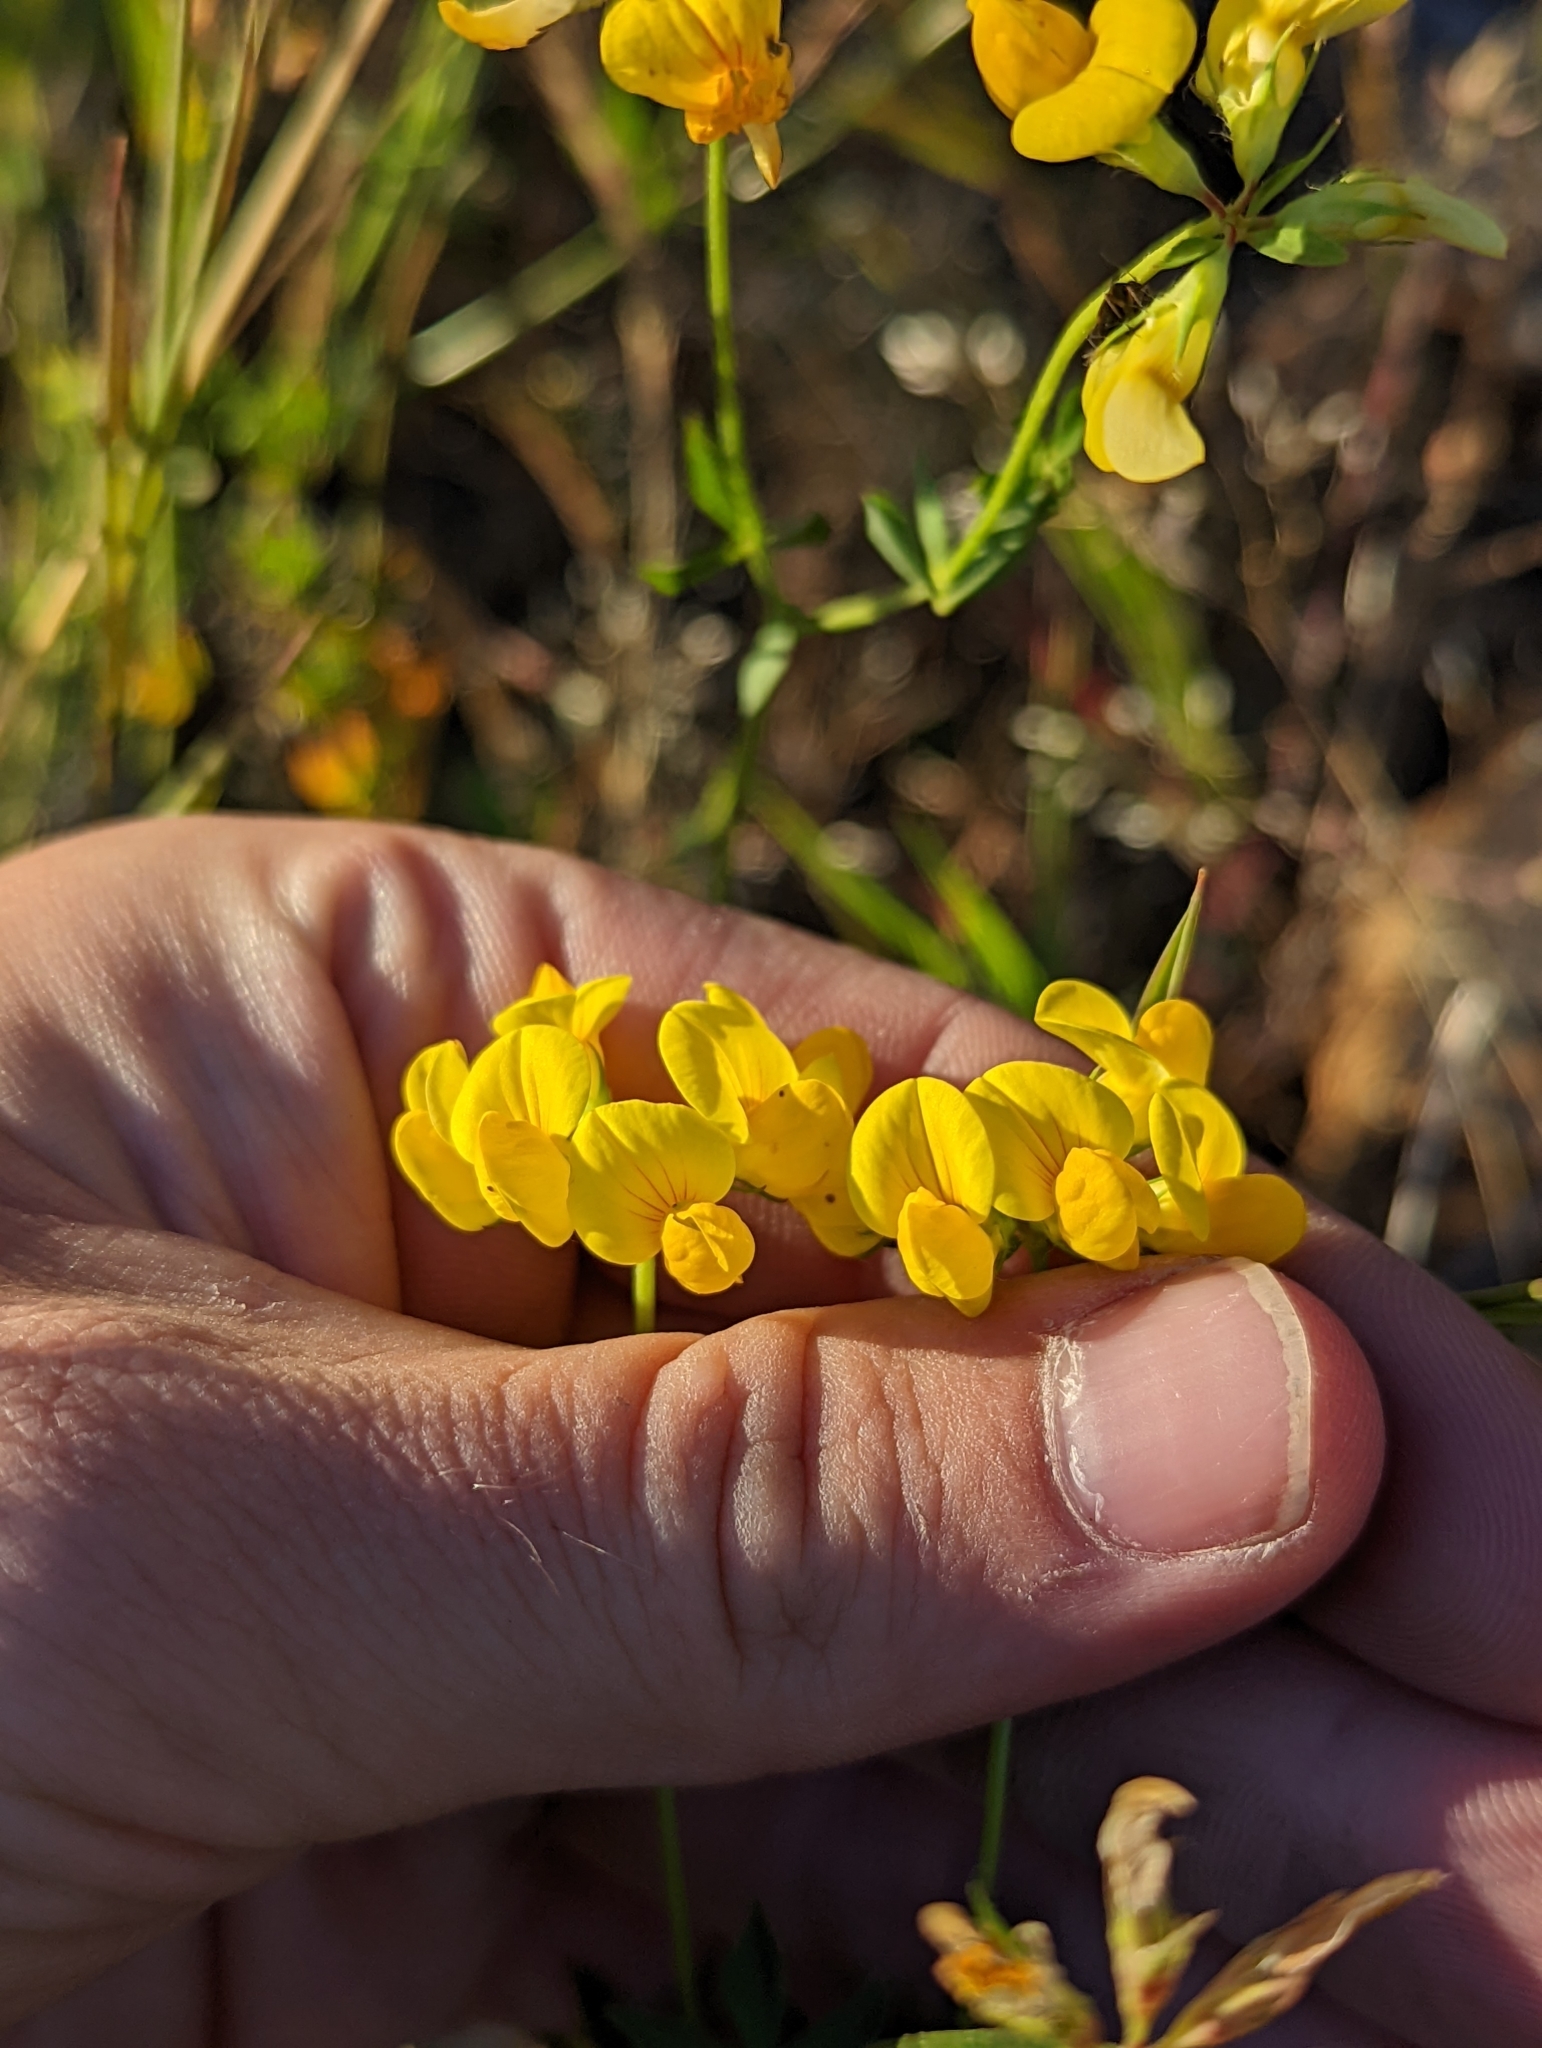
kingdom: Plantae
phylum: Tracheophyta
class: Magnoliopsida
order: Fabales
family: Fabaceae
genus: Lotus
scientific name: Lotus corniculatus
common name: Common bird's-foot-trefoil
